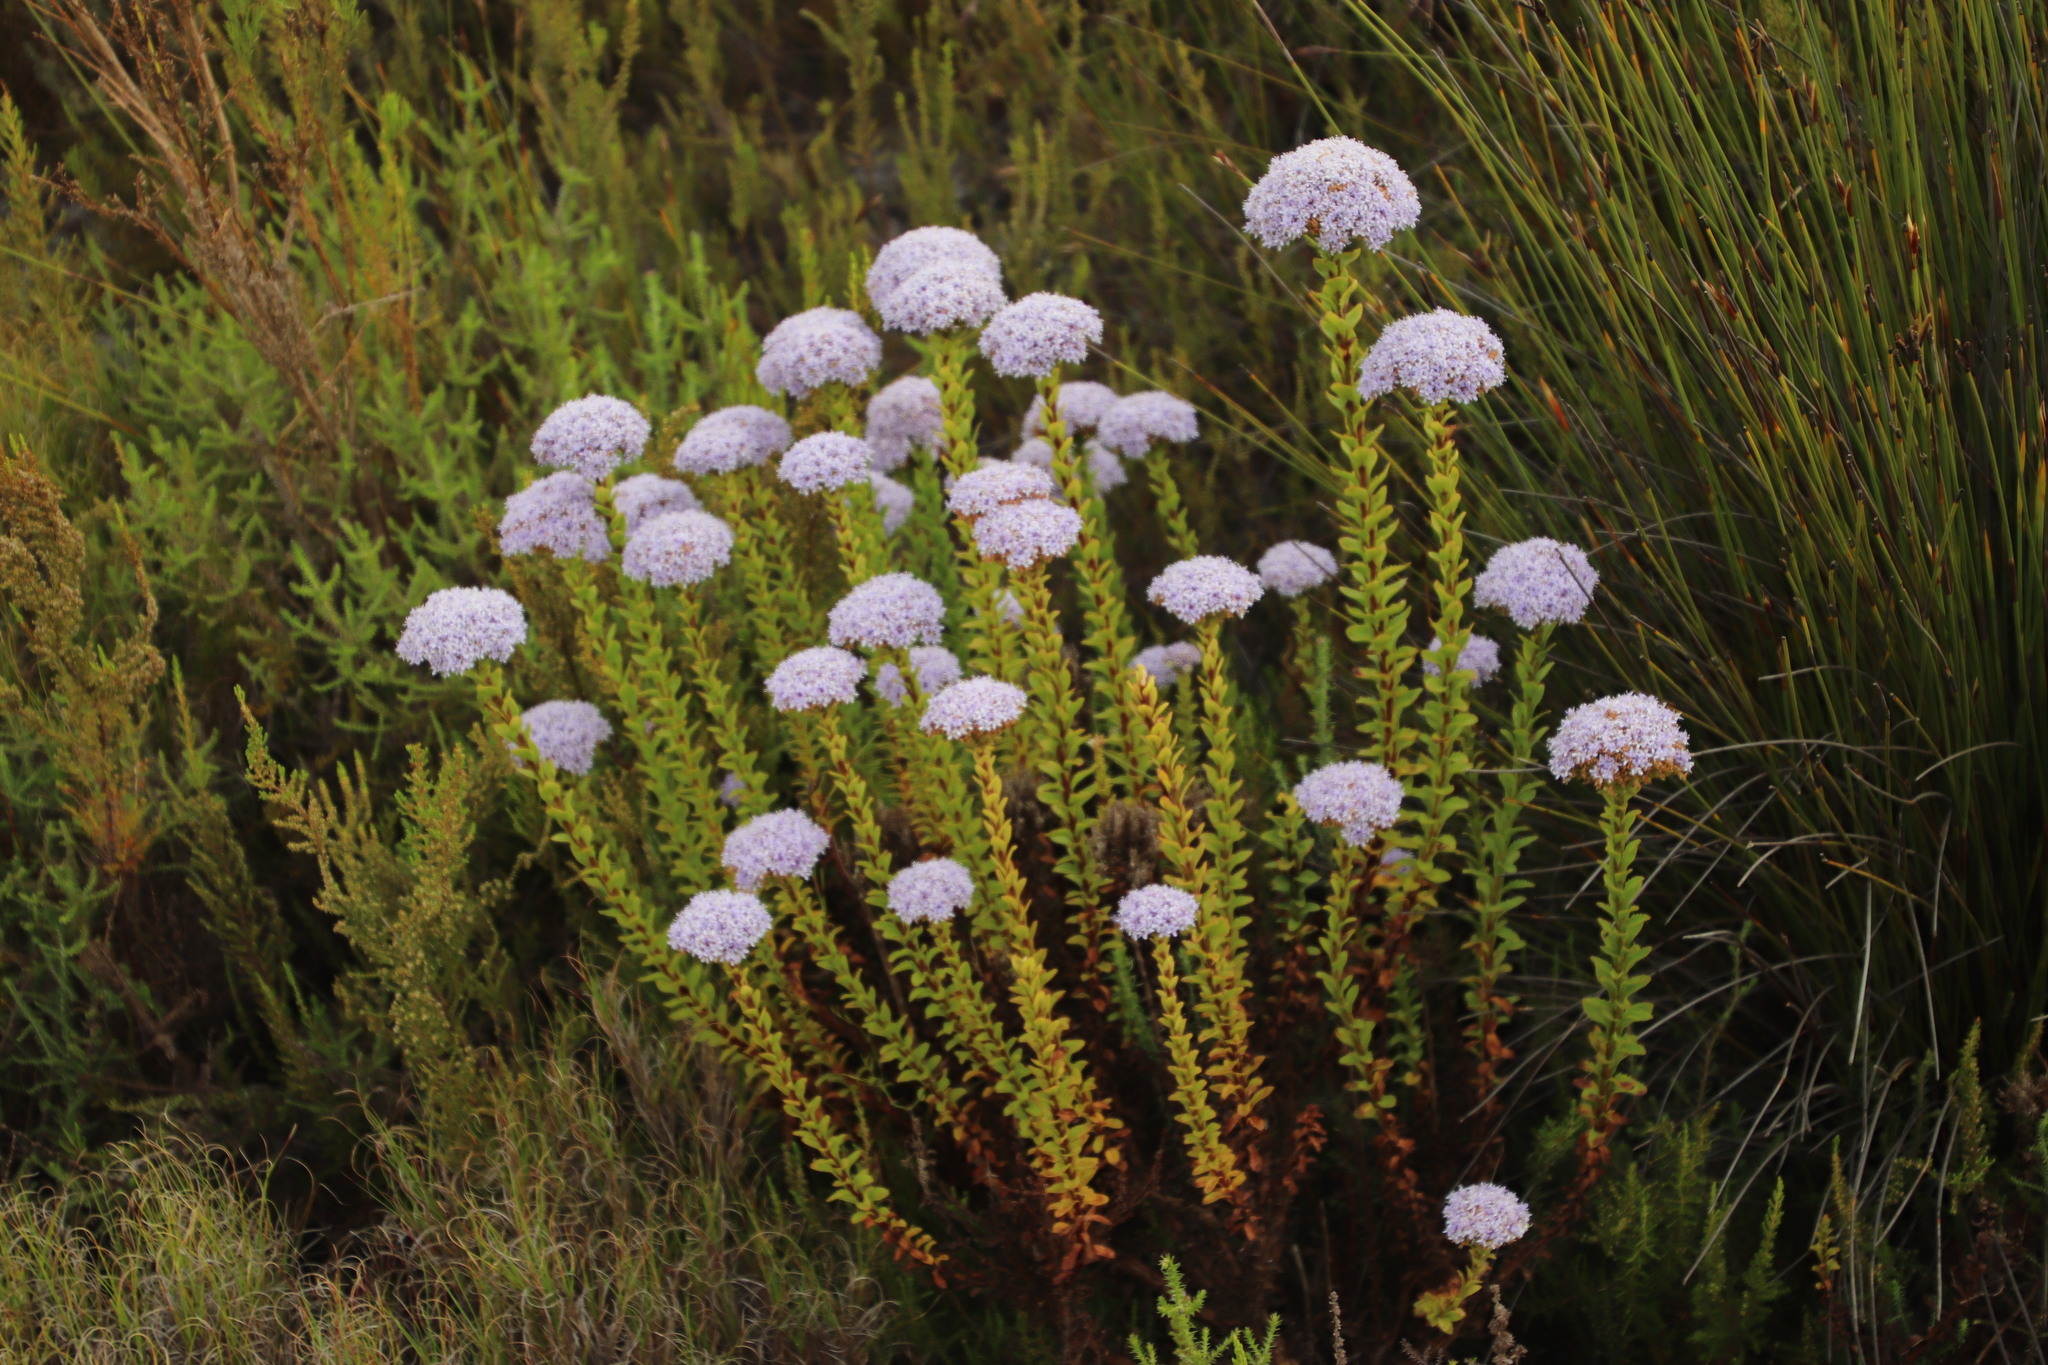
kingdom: Plantae
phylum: Tracheophyta
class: Magnoliopsida
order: Lamiales
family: Scrophulariaceae
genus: Pseudoselago
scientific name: Pseudoselago serrata
